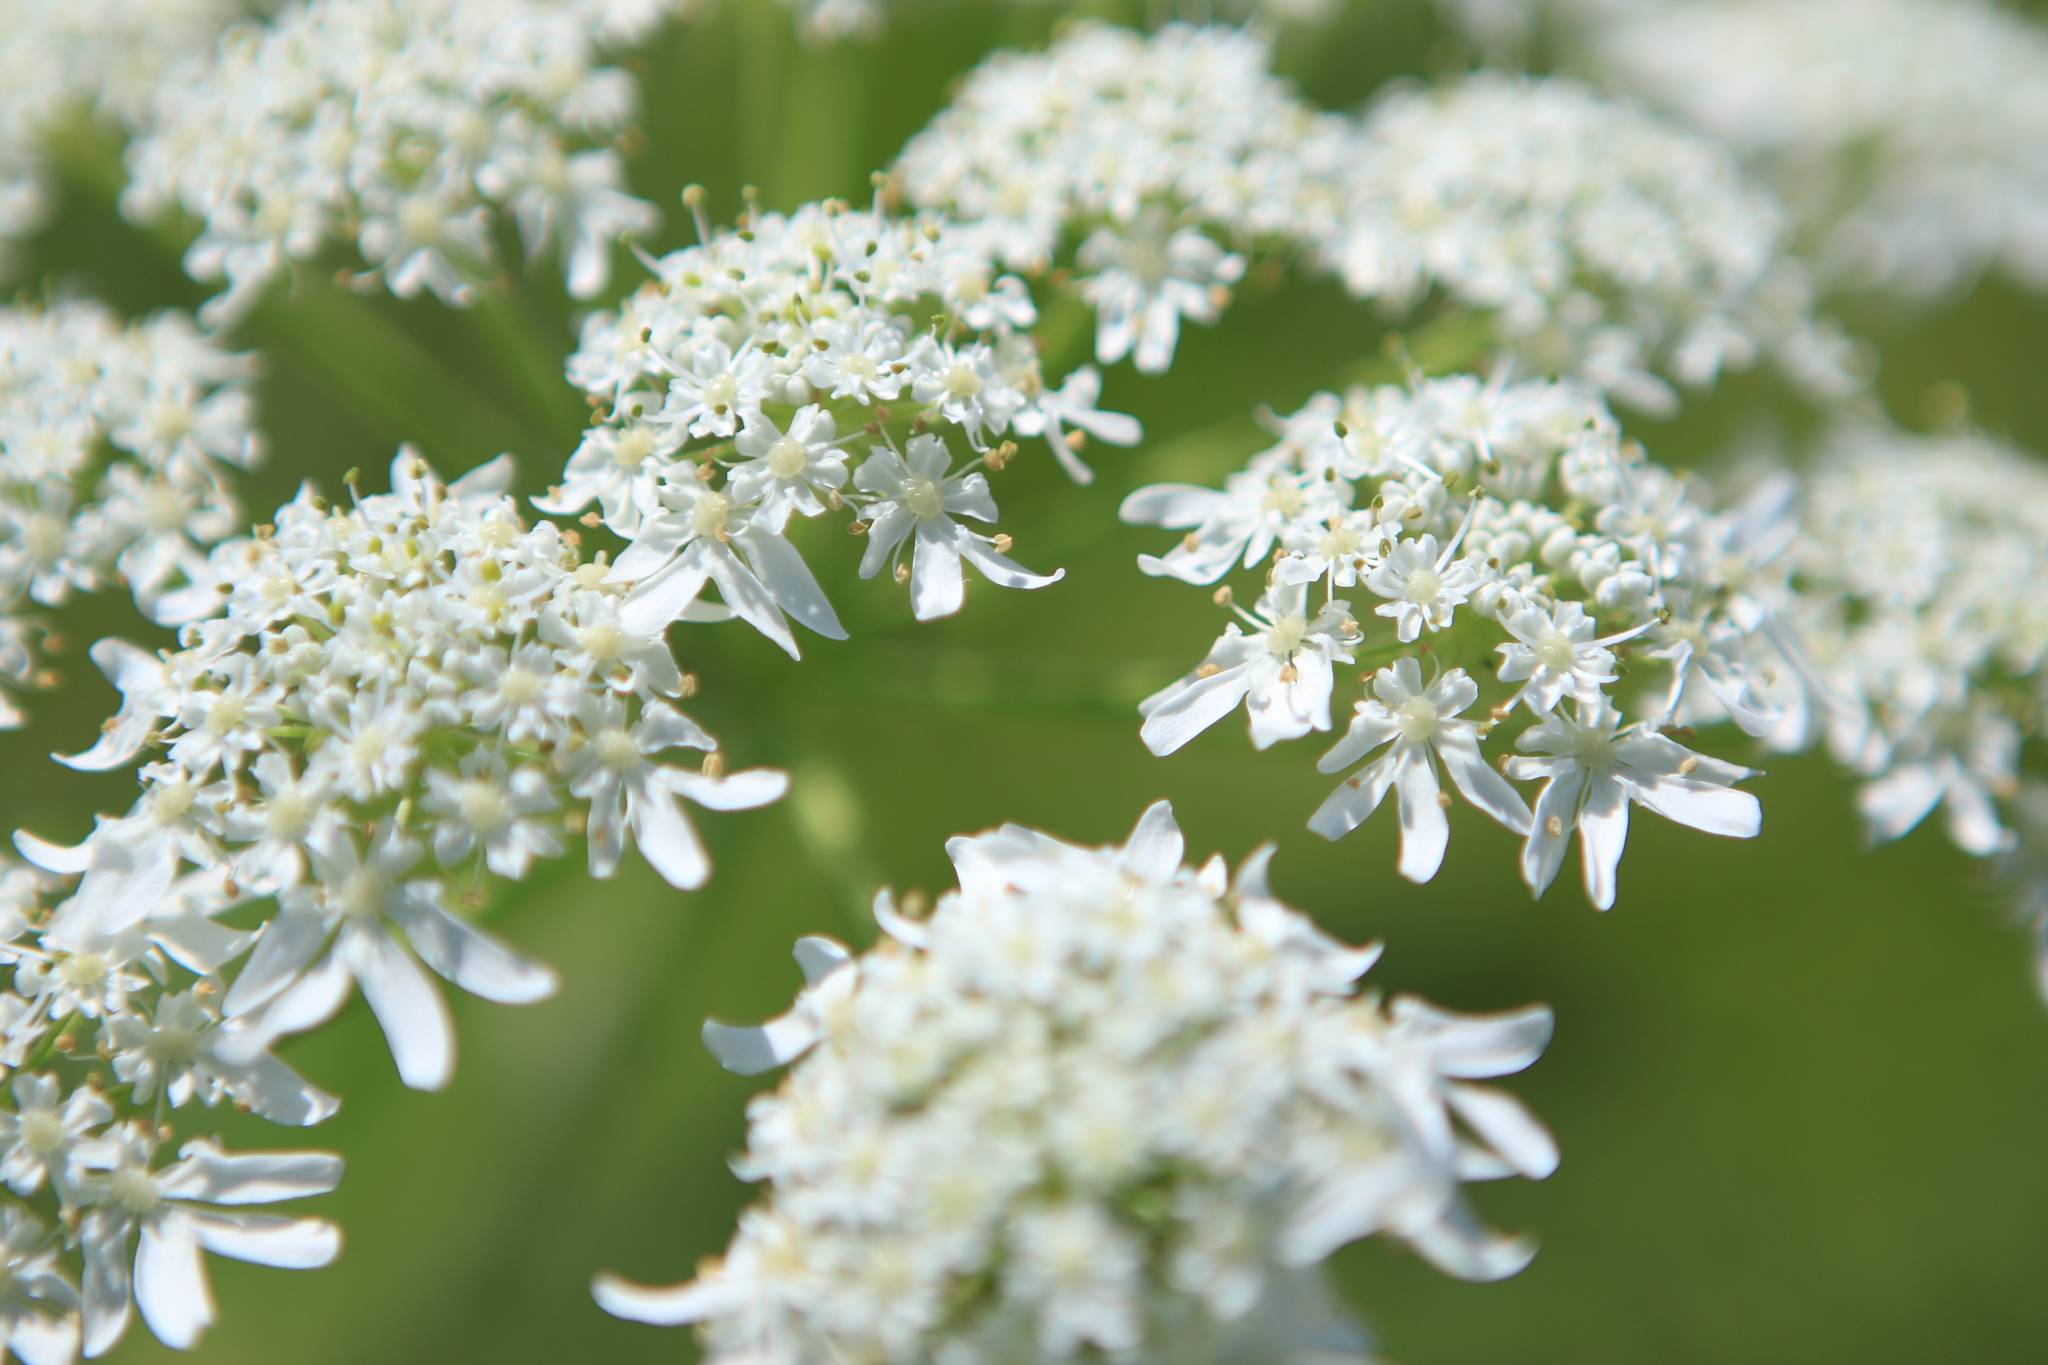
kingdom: Plantae
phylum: Tracheophyta
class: Magnoliopsida
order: Apiales
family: Apiaceae
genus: Heracleum
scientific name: Heracleum dissectum
